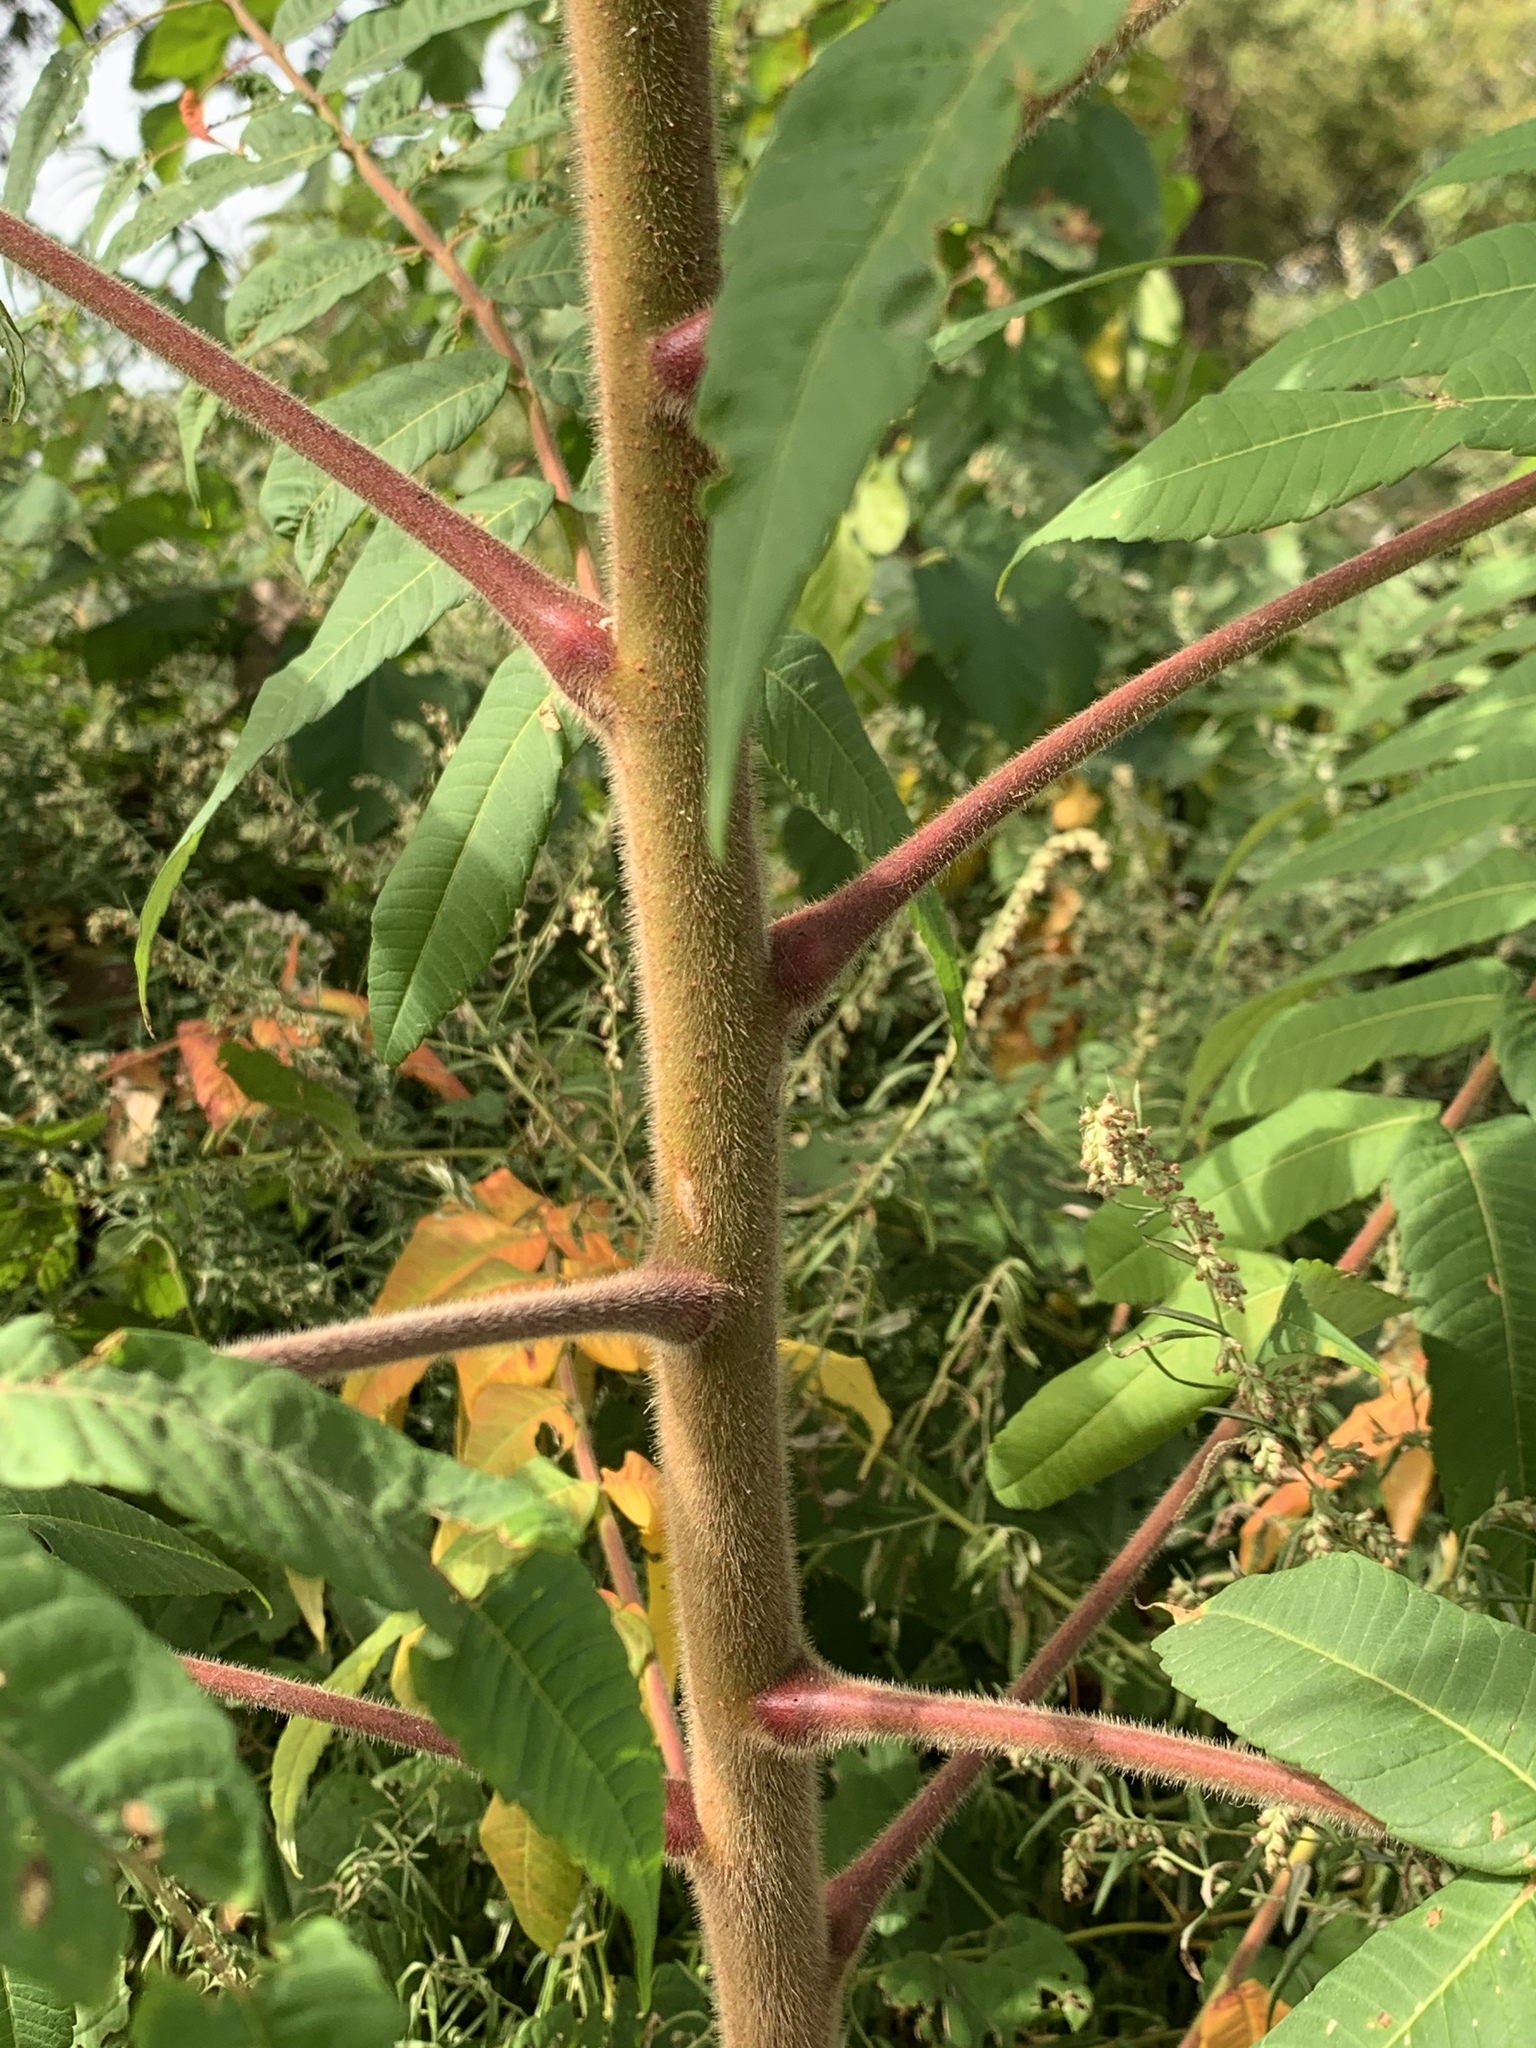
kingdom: Plantae
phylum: Tracheophyta
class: Magnoliopsida
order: Sapindales
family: Anacardiaceae
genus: Rhus
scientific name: Rhus typhina
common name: Staghorn sumac
